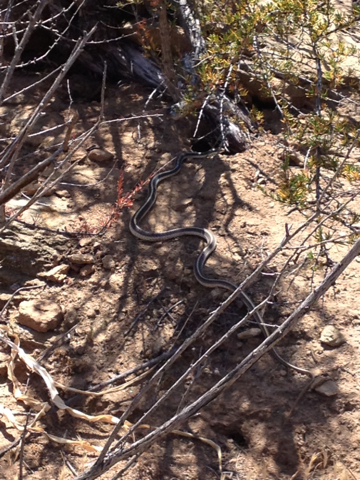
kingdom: Animalia
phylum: Chordata
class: Squamata
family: Colubridae
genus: Salvadora
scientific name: Salvadora hexalepis
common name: Western patchnose snake
